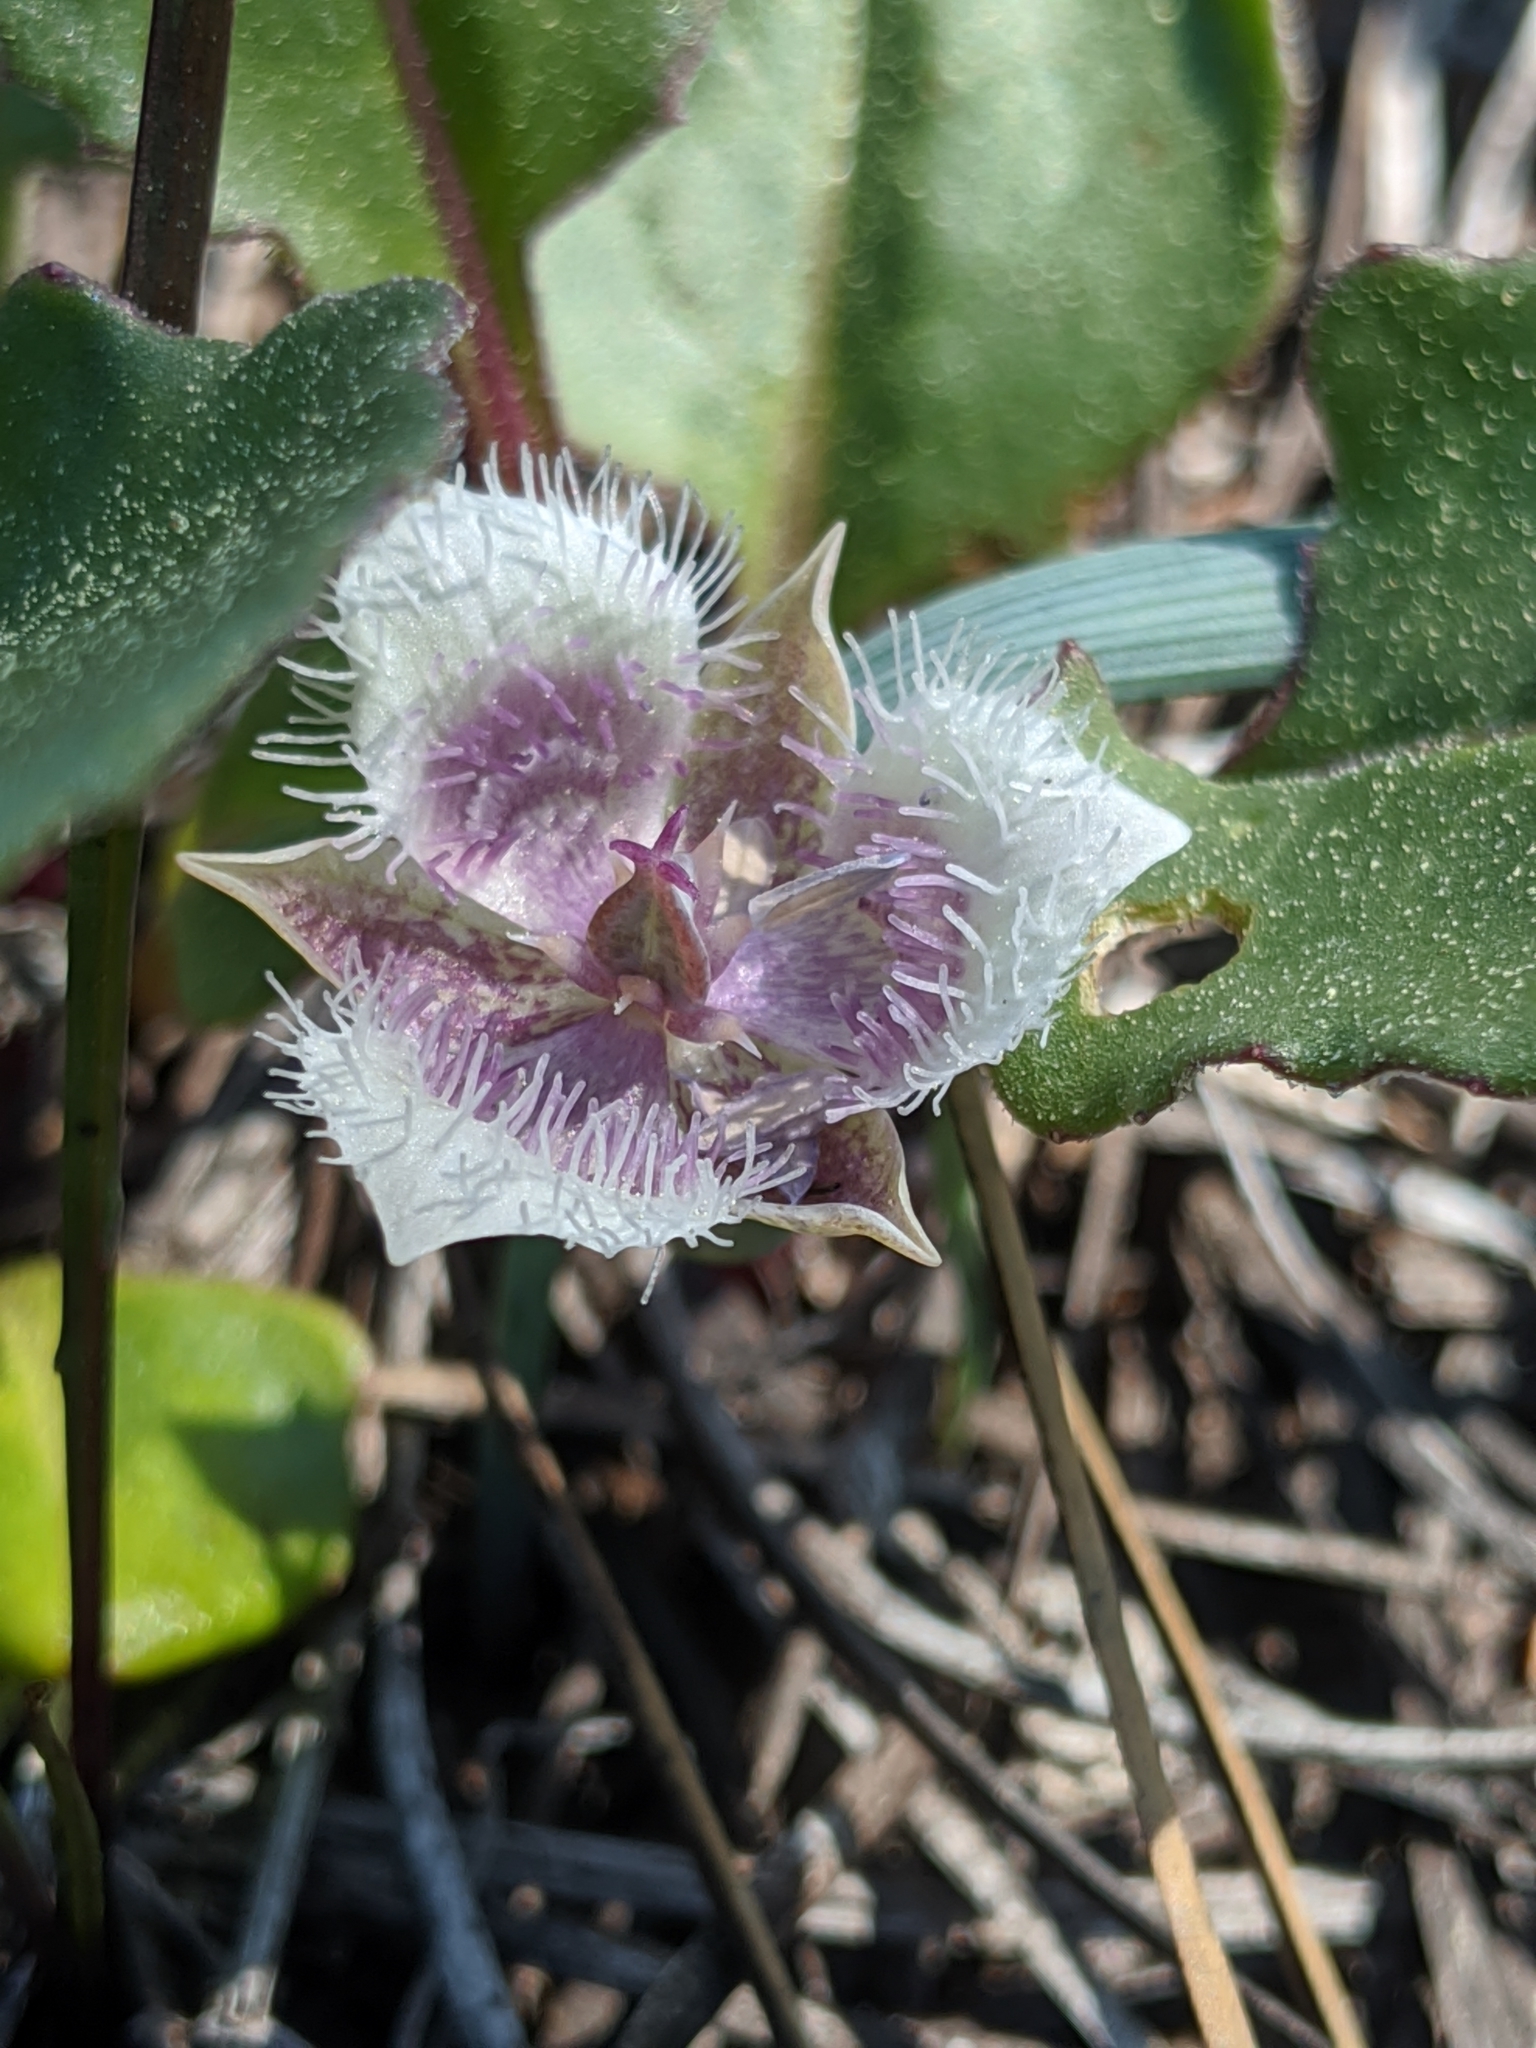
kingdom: Plantae
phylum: Tracheophyta
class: Liliopsida
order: Liliales
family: Liliaceae
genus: Calochortus
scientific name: Calochortus elegans
